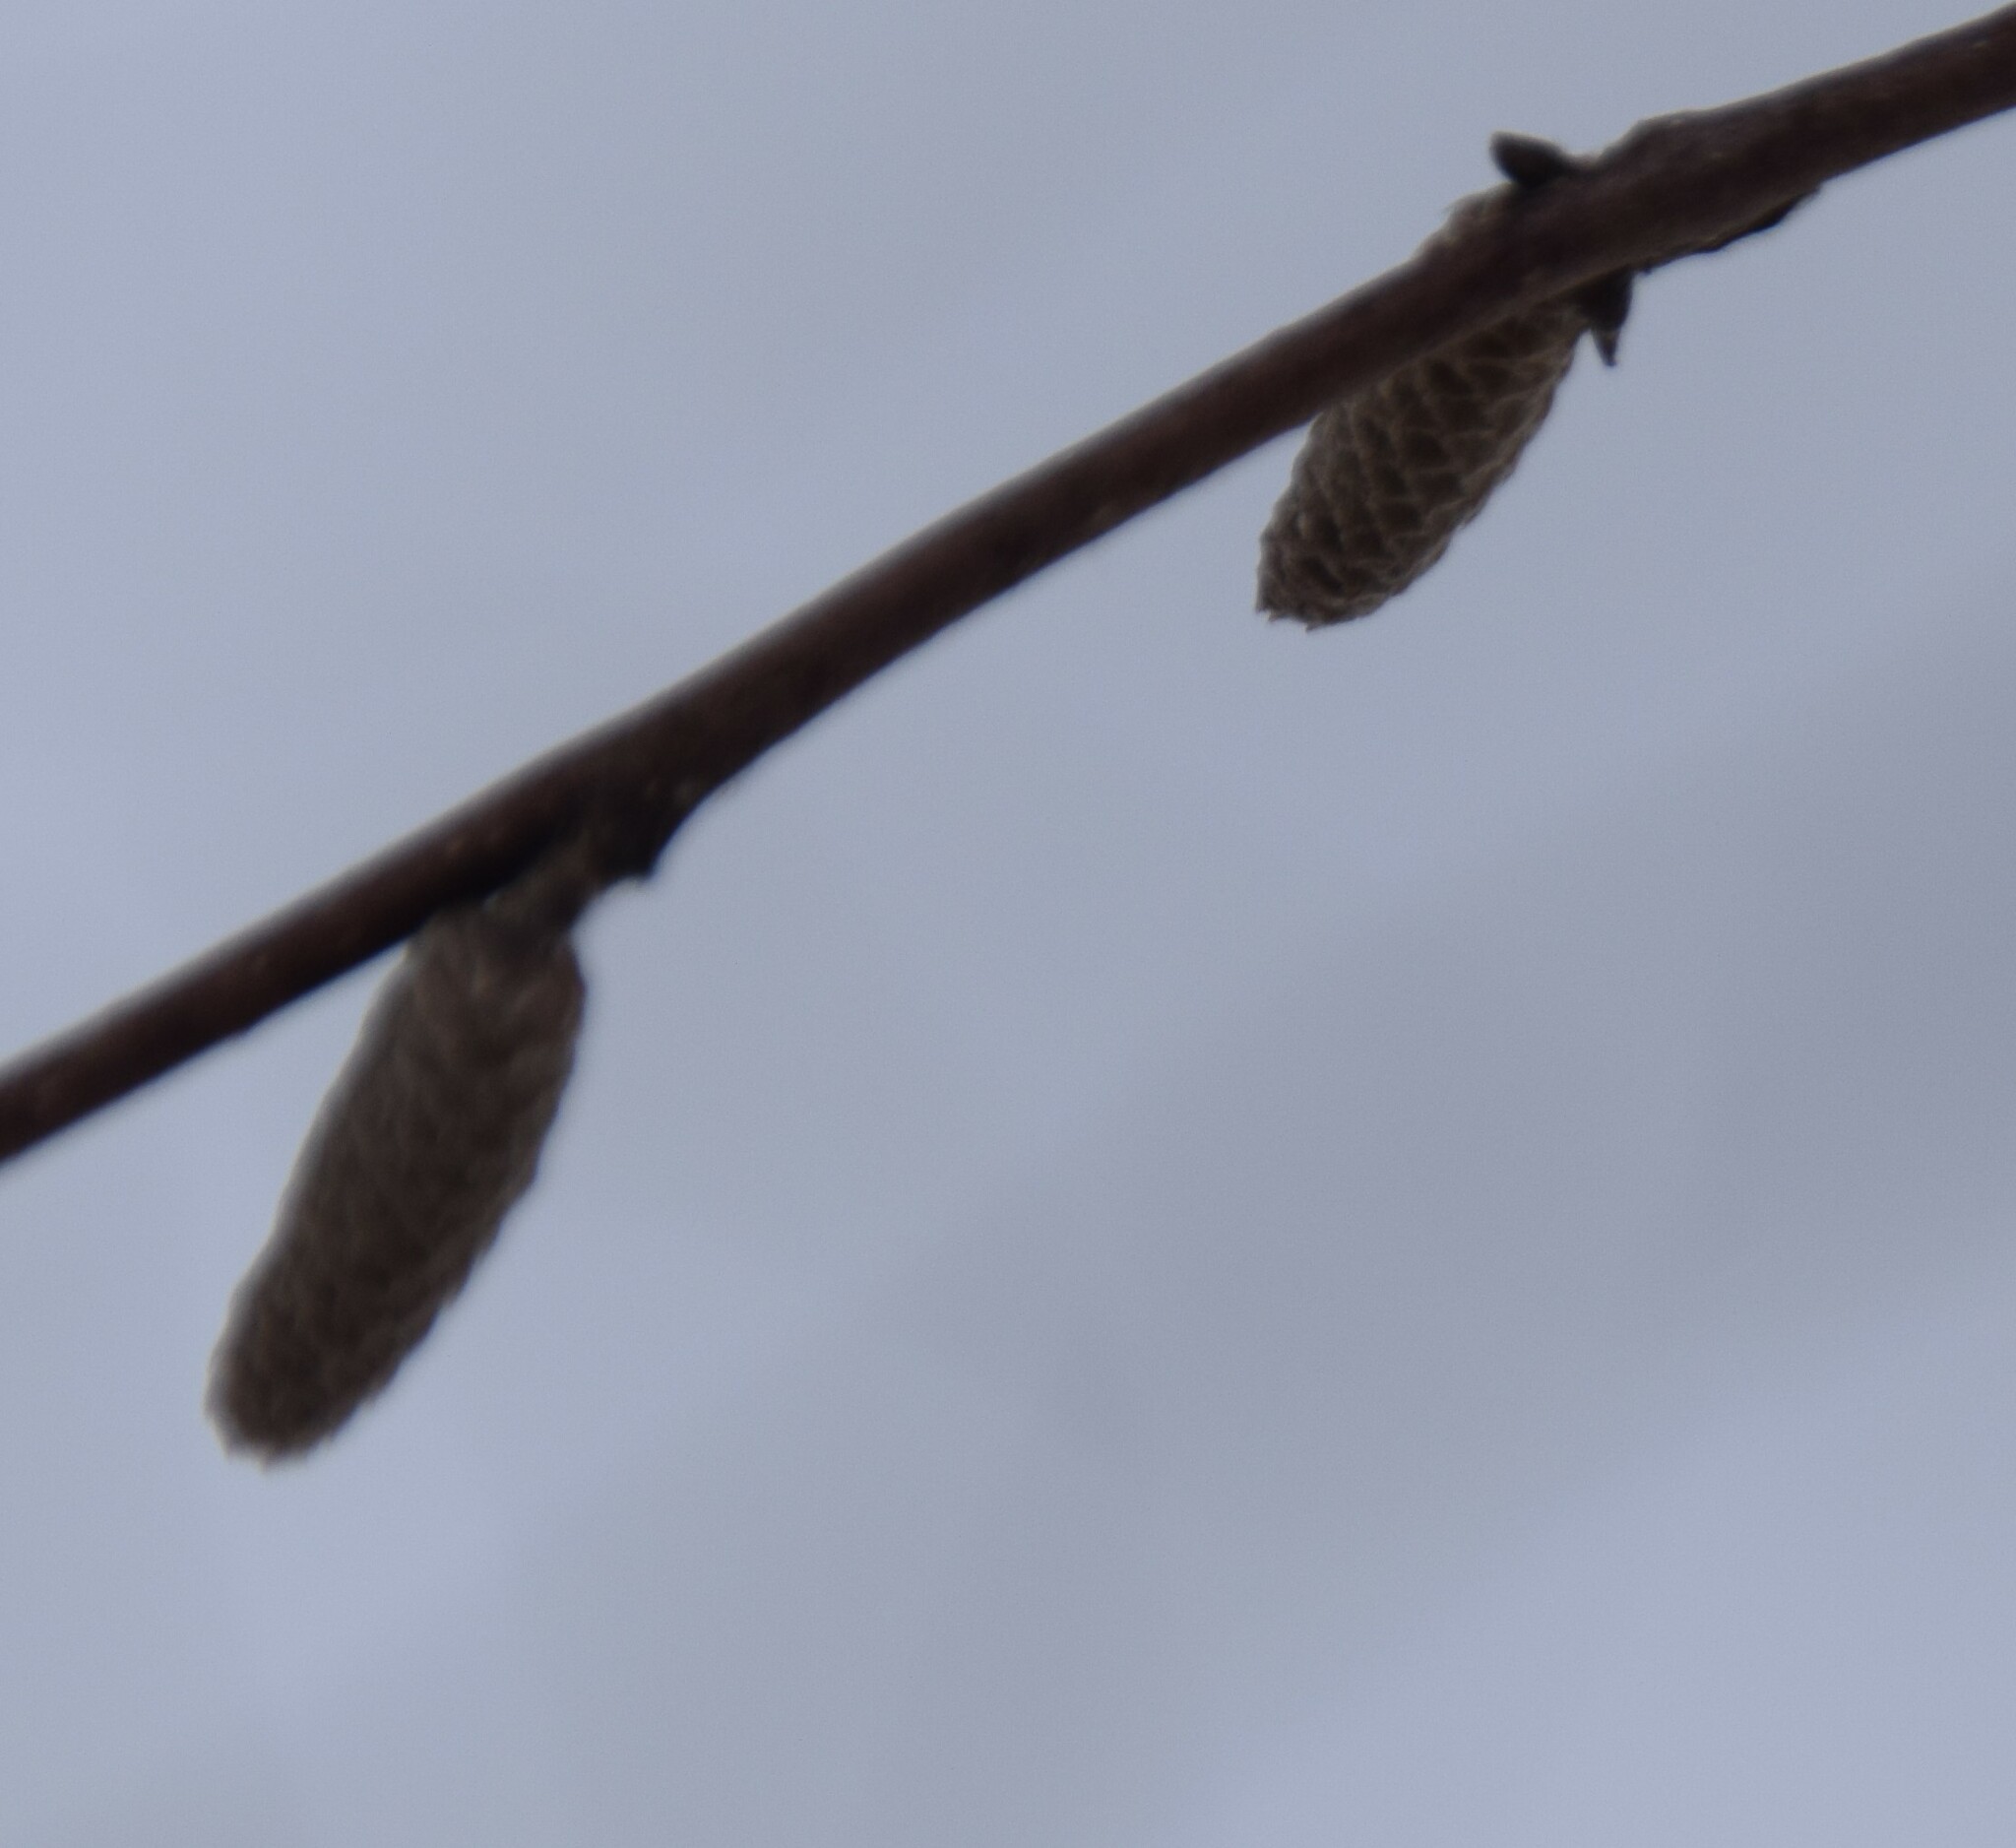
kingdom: Plantae
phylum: Tracheophyta
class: Magnoliopsida
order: Fagales
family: Betulaceae
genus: Corylus
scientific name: Corylus cornuta
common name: Beaked hazel
